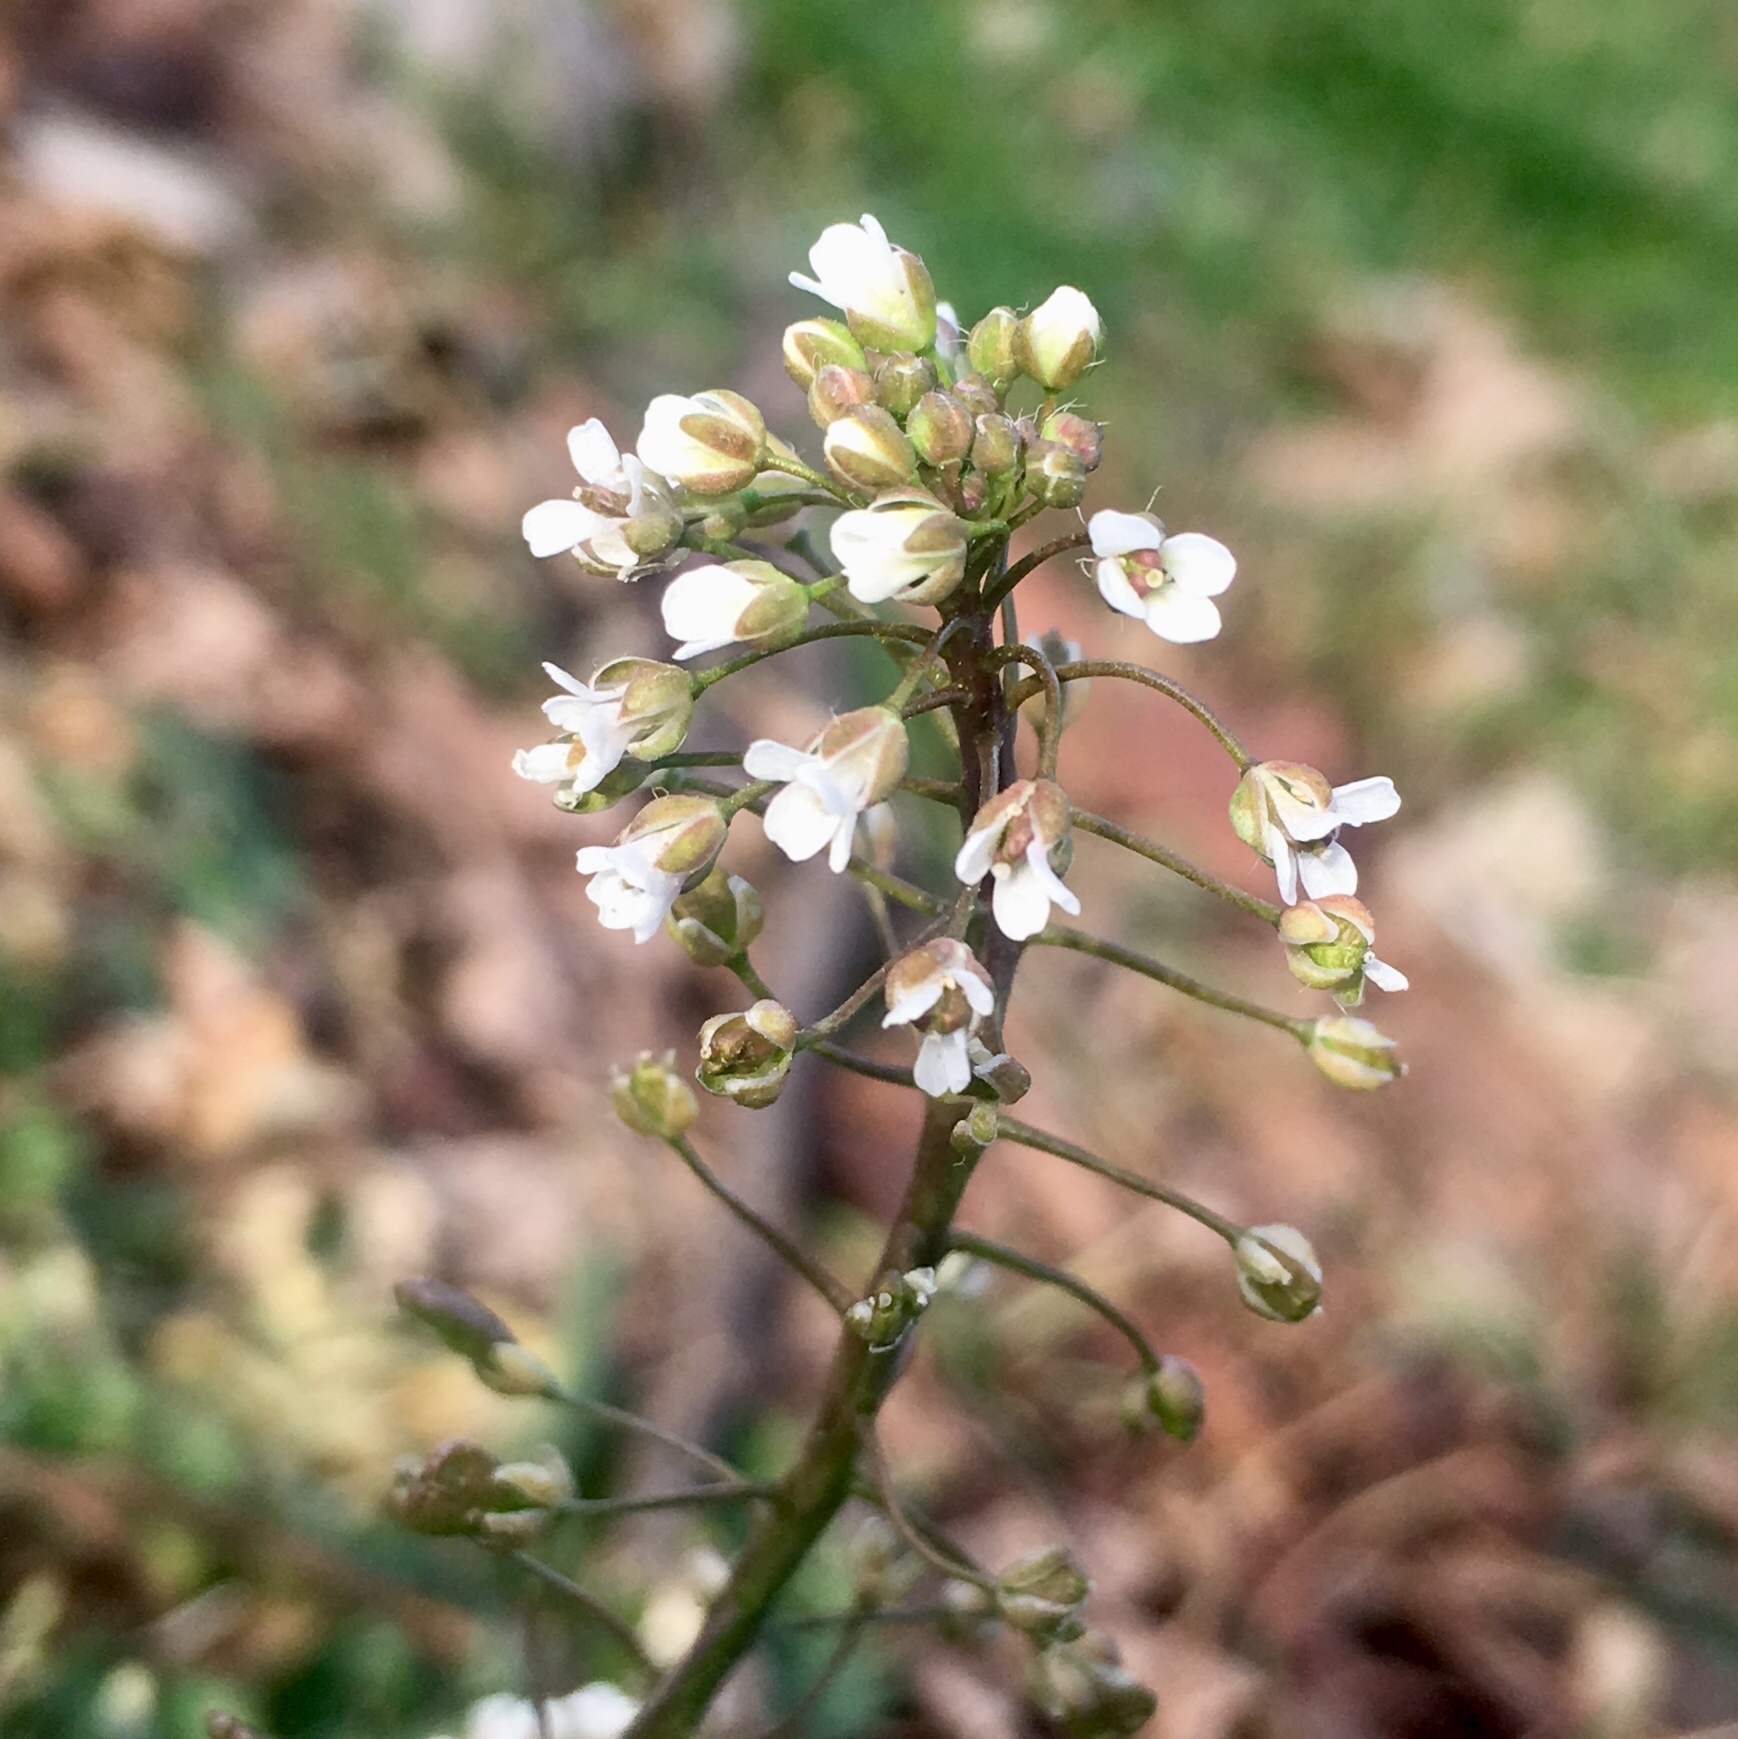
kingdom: Plantae
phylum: Tracheophyta
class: Magnoliopsida
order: Brassicales
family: Brassicaceae
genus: Capsella
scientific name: Capsella bursa-pastoris
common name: Shepherd's purse
